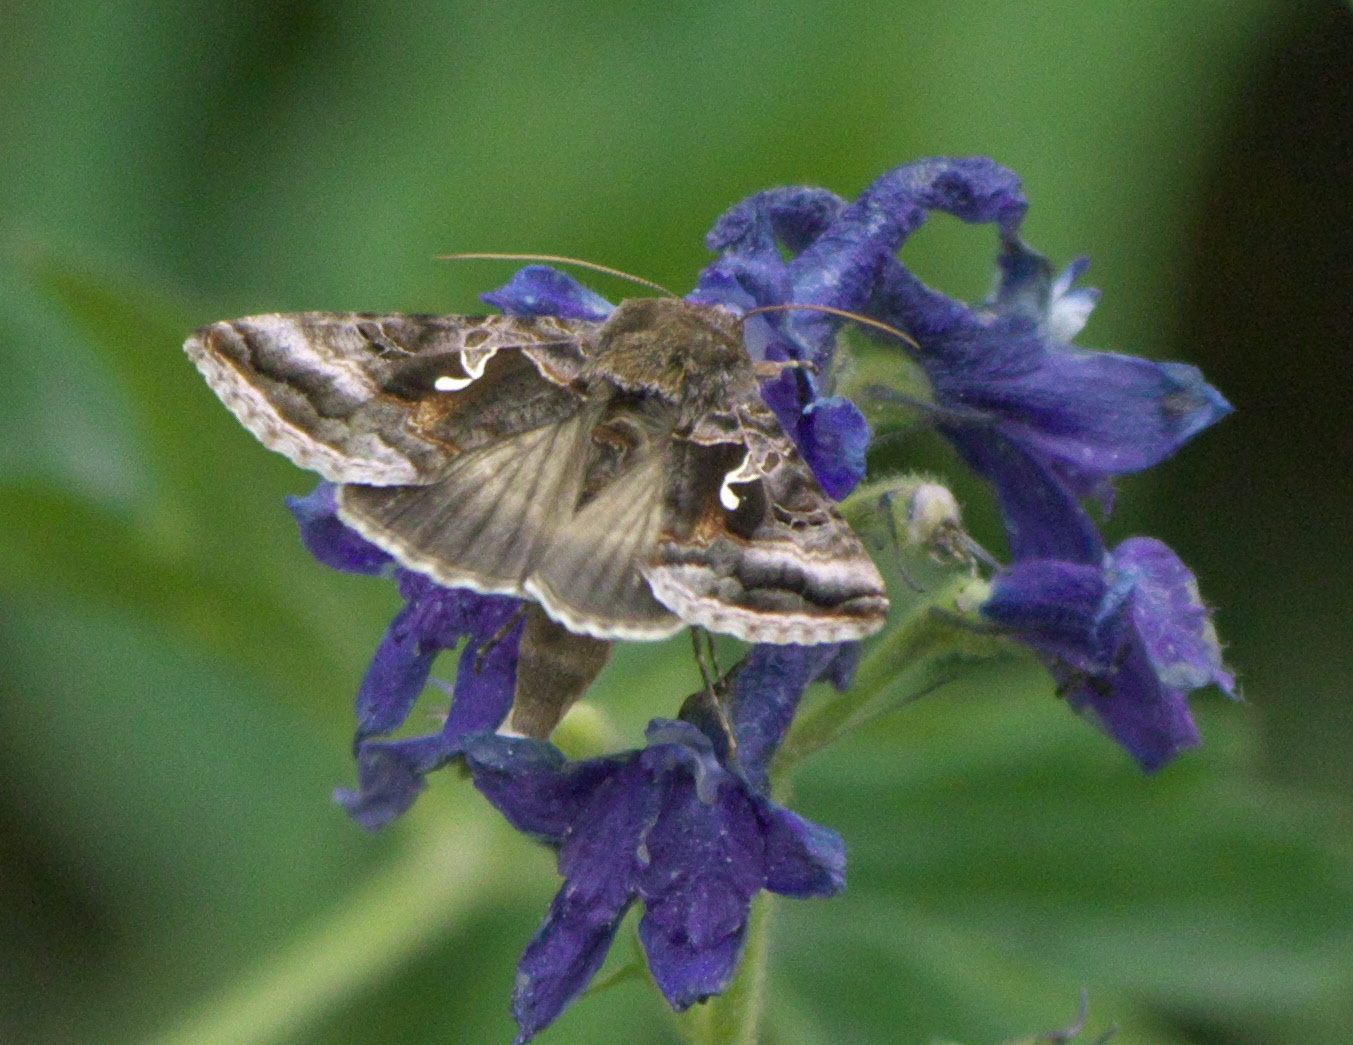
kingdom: Animalia
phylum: Arthropoda
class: Insecta
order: Lepidoptera
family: Noctuidae
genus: Autographa
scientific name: Autographa pseudogamma
